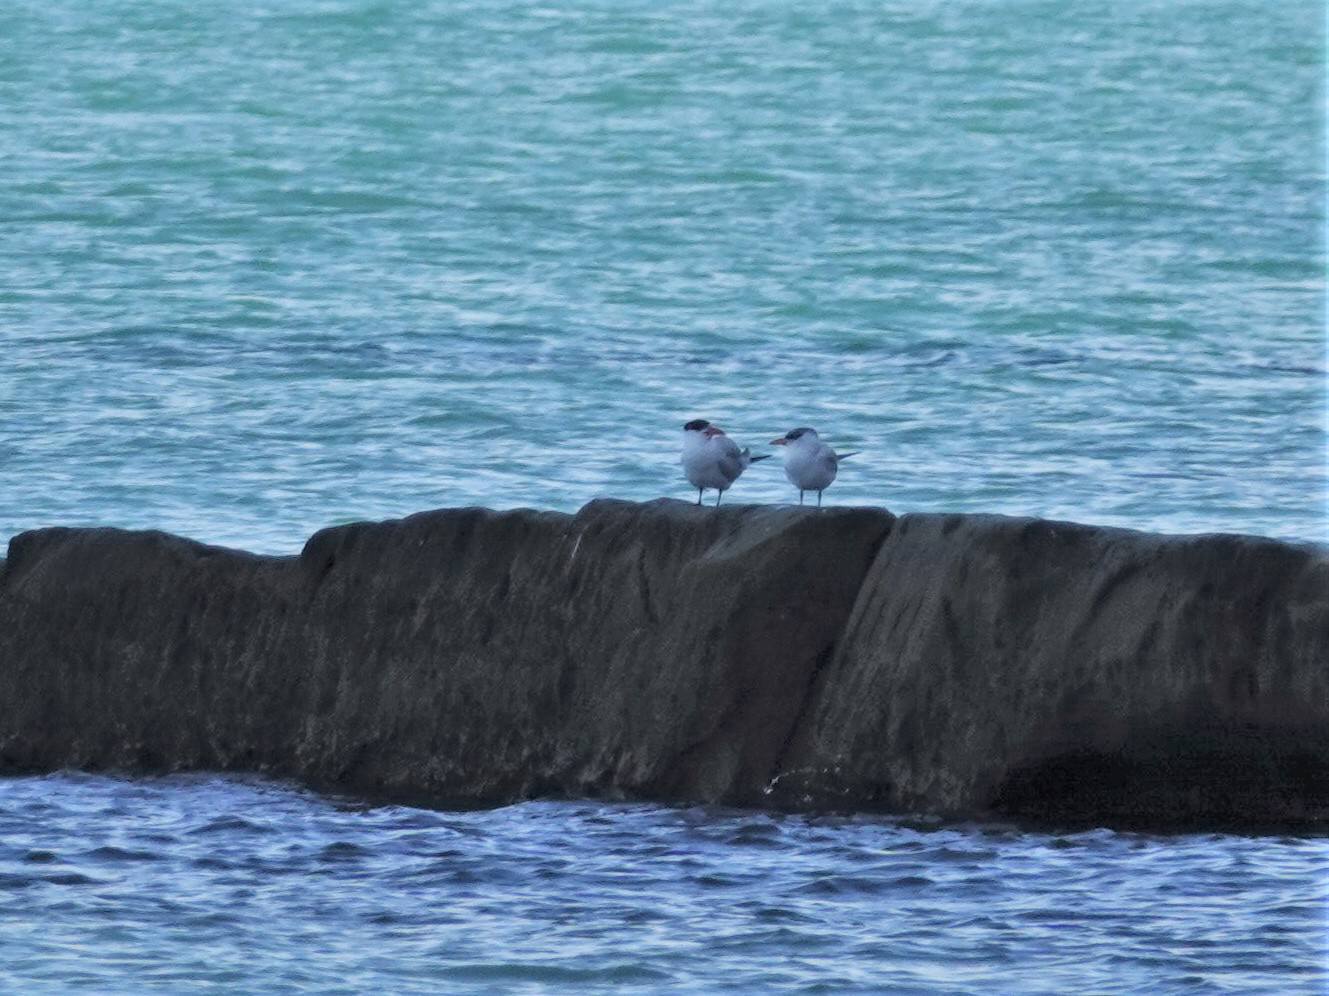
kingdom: Animalia
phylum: Chordata
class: Aves
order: Charadriiformes
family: Laridae
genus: Hydroprogne
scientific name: Hydroprogne caspia
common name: Caspian tern
